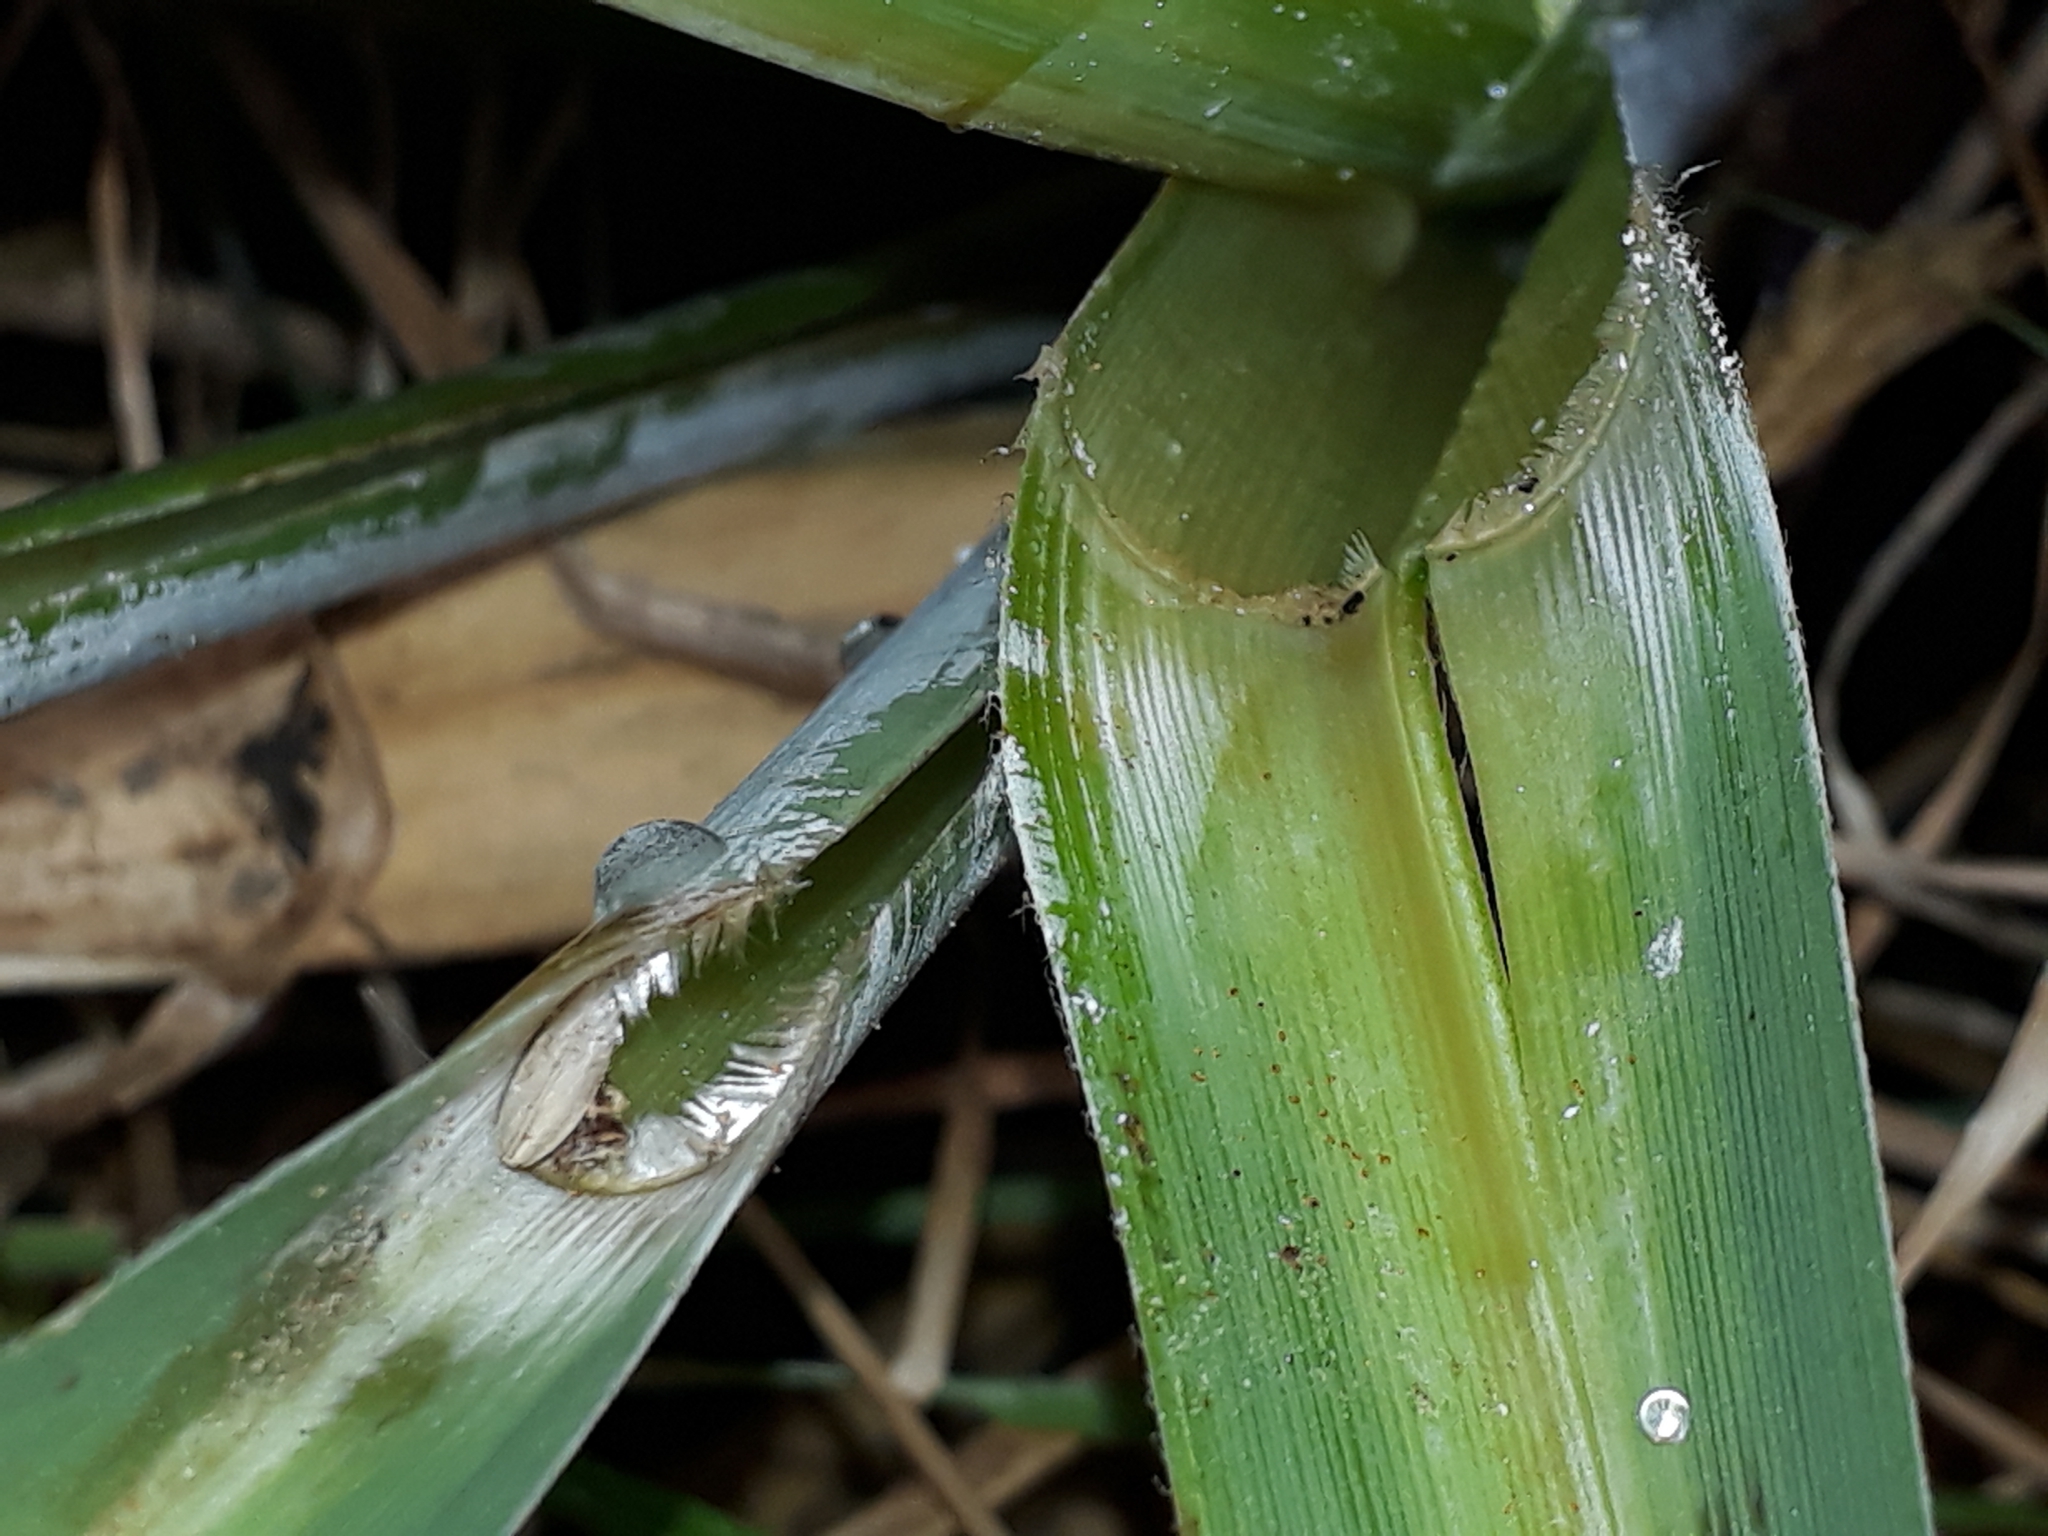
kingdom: Plantae
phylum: Tracheophyta
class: Liliopsida
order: Poales
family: Poaceae
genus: Austroderia
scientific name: Austroderia fulvida
